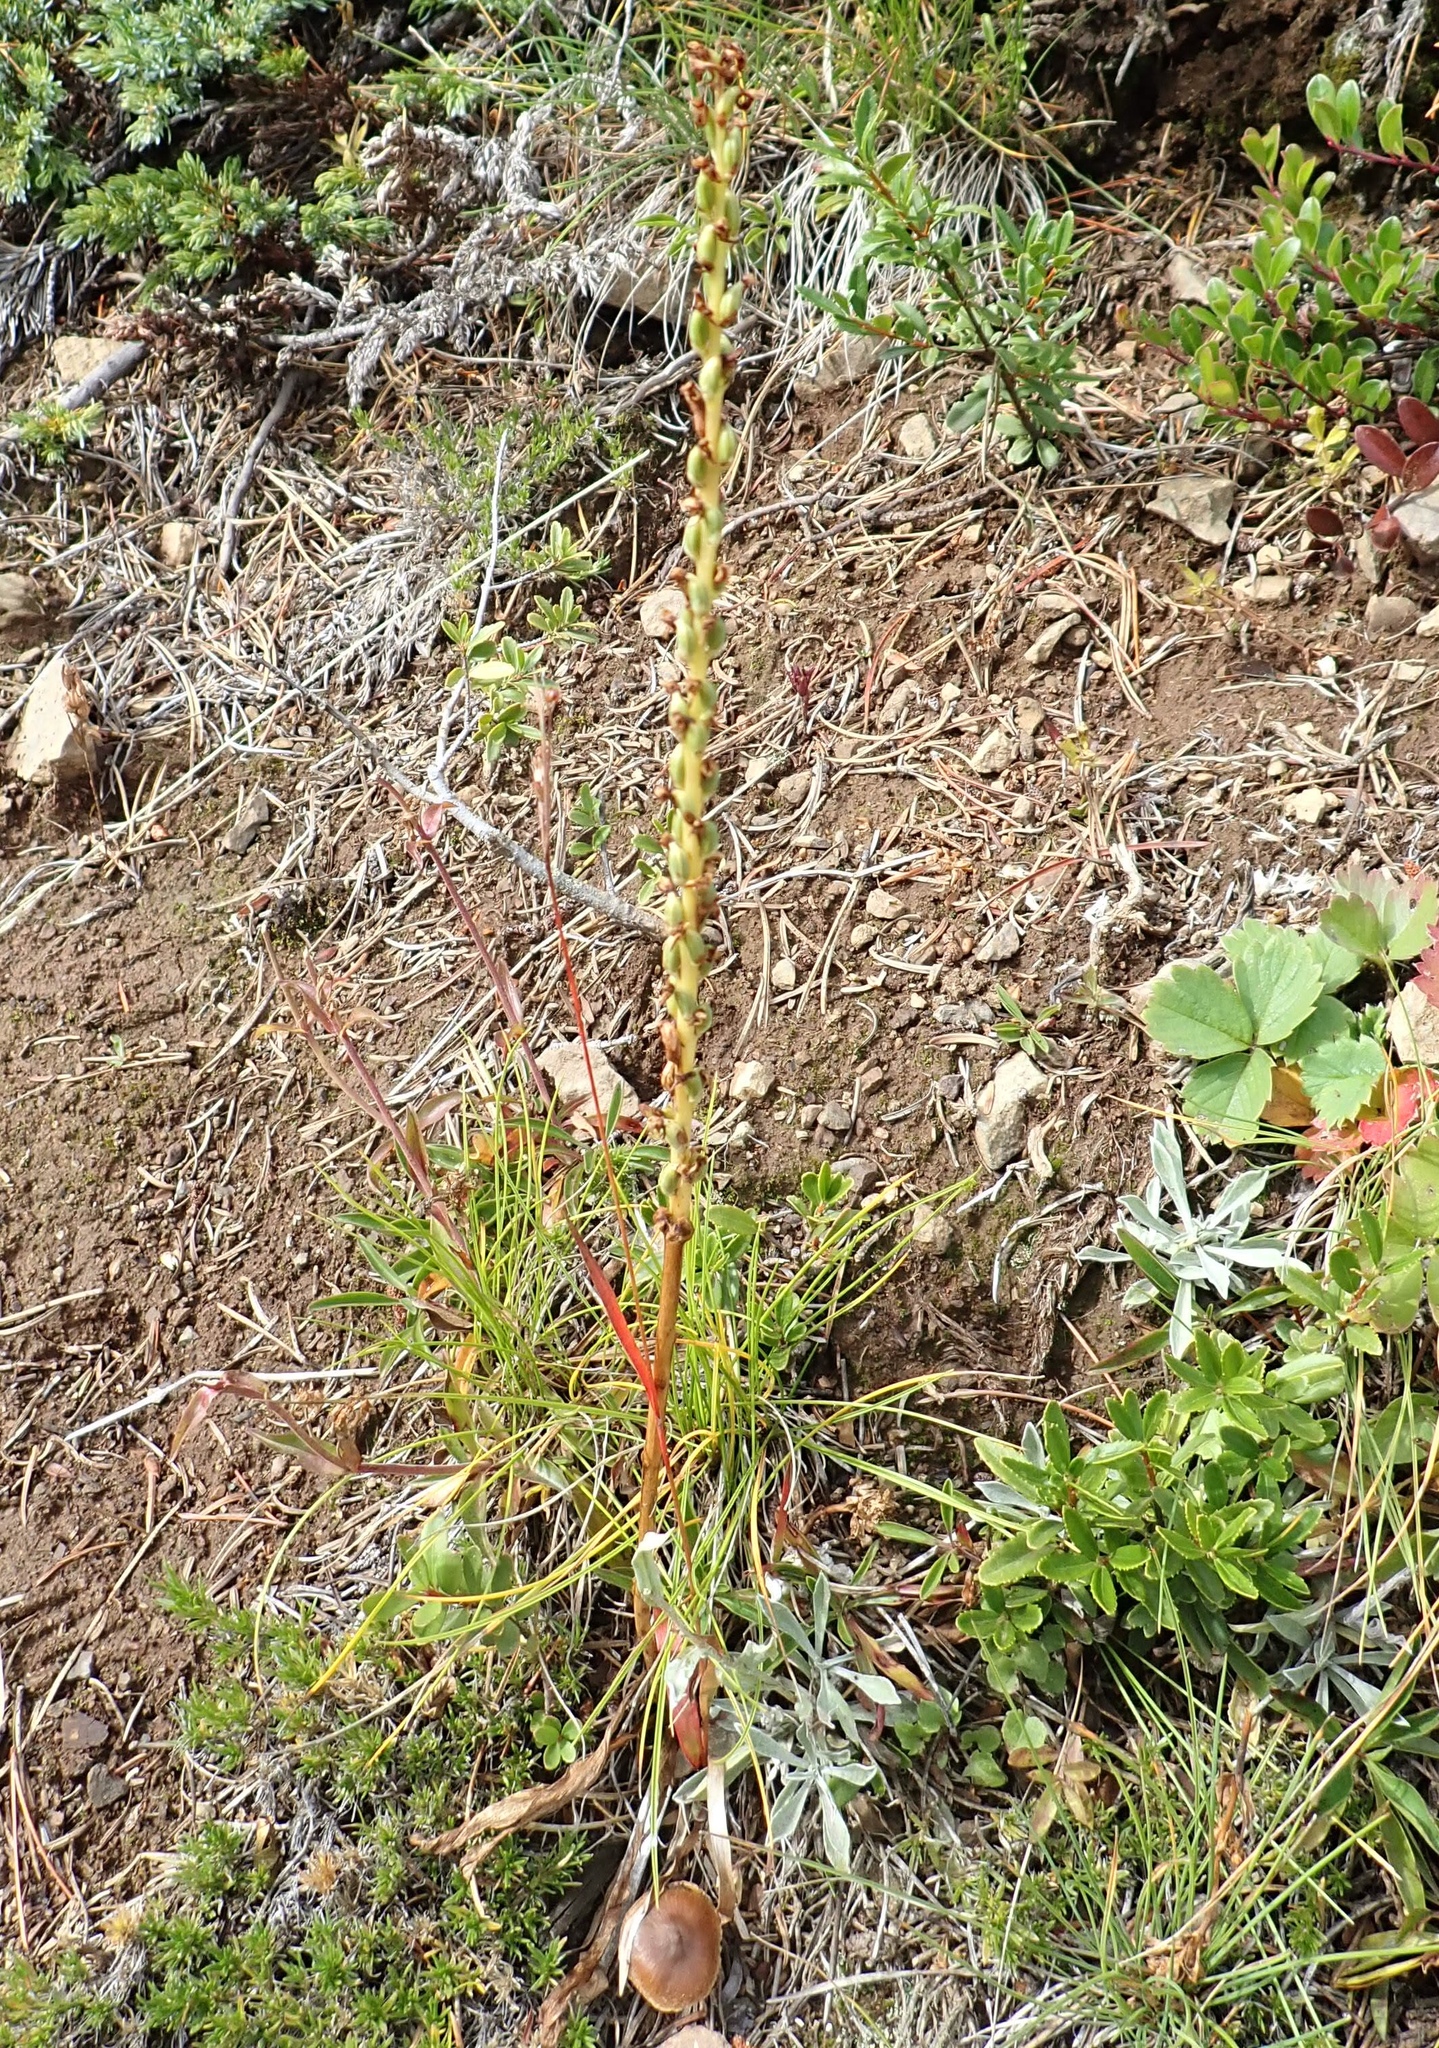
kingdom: Plantae
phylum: Tracheophyta
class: Liliopsida
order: Asparagales
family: Orchidaceae
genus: Platanthera
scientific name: Platanthera unalascensis
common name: Alaska bog orchid
